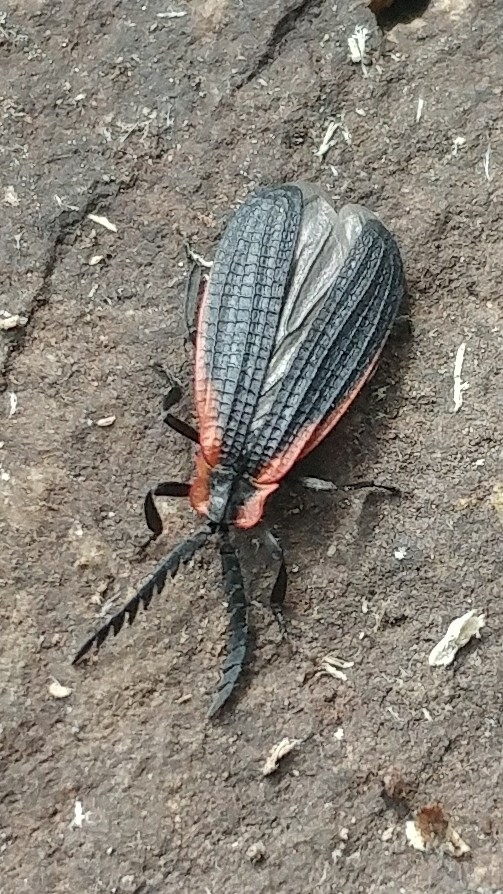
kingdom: Animalia
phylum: Arthropoda
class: Insecta
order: Coleoptera
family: Lycidae
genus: Caenia
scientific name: Caenia amplicornis
